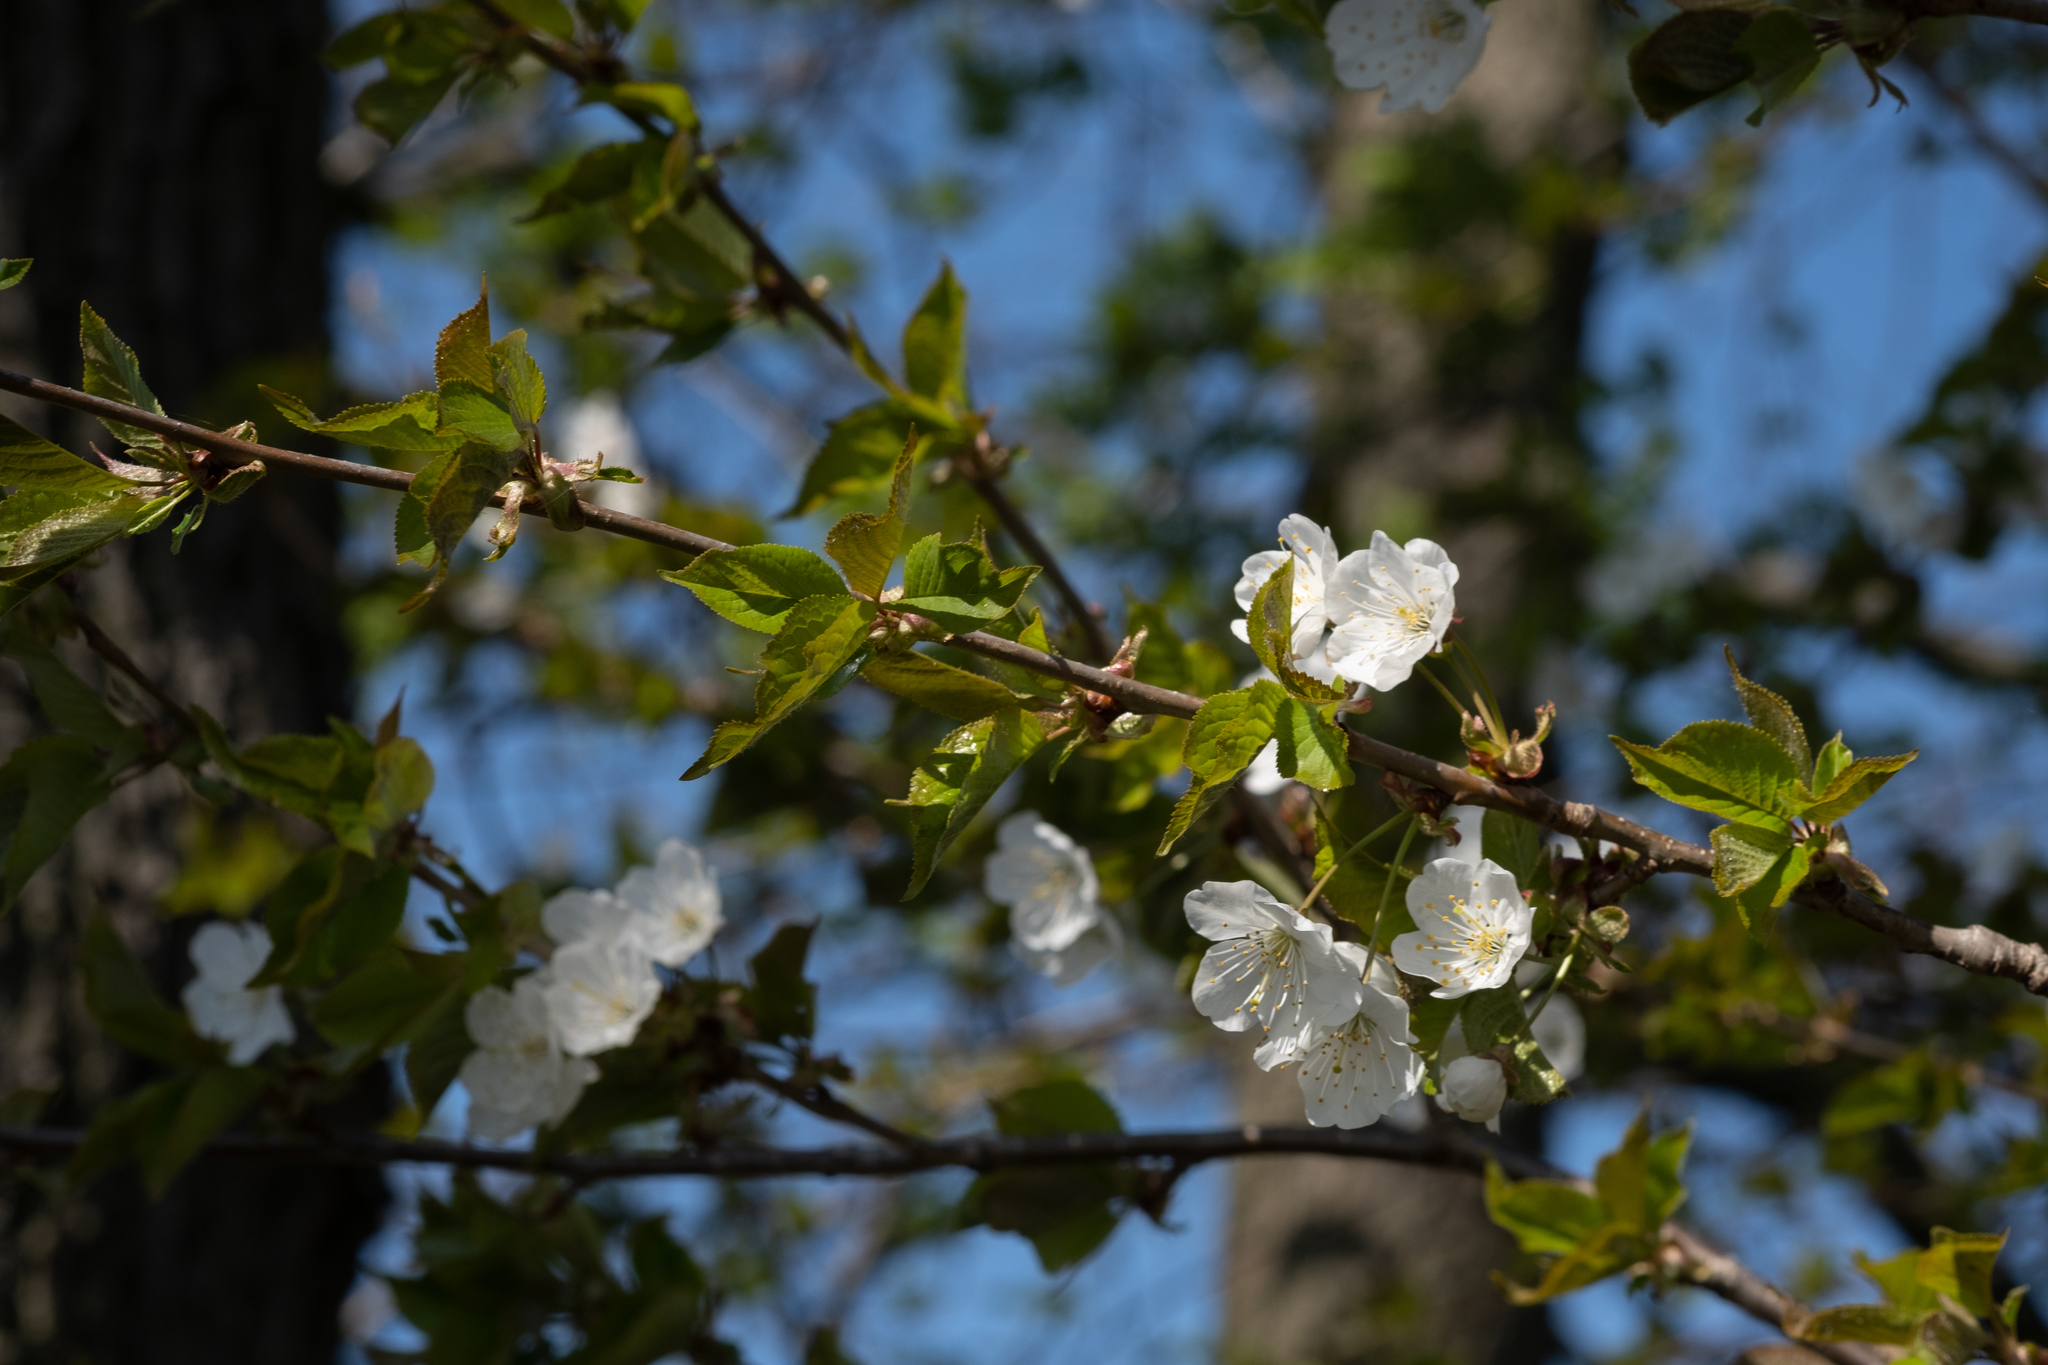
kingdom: Plantae
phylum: Tracheophyta
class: Magnoliopsida
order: Rosales
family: Rosaceae
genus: Prunus
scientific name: Prunus avium
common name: Sweet cherry
